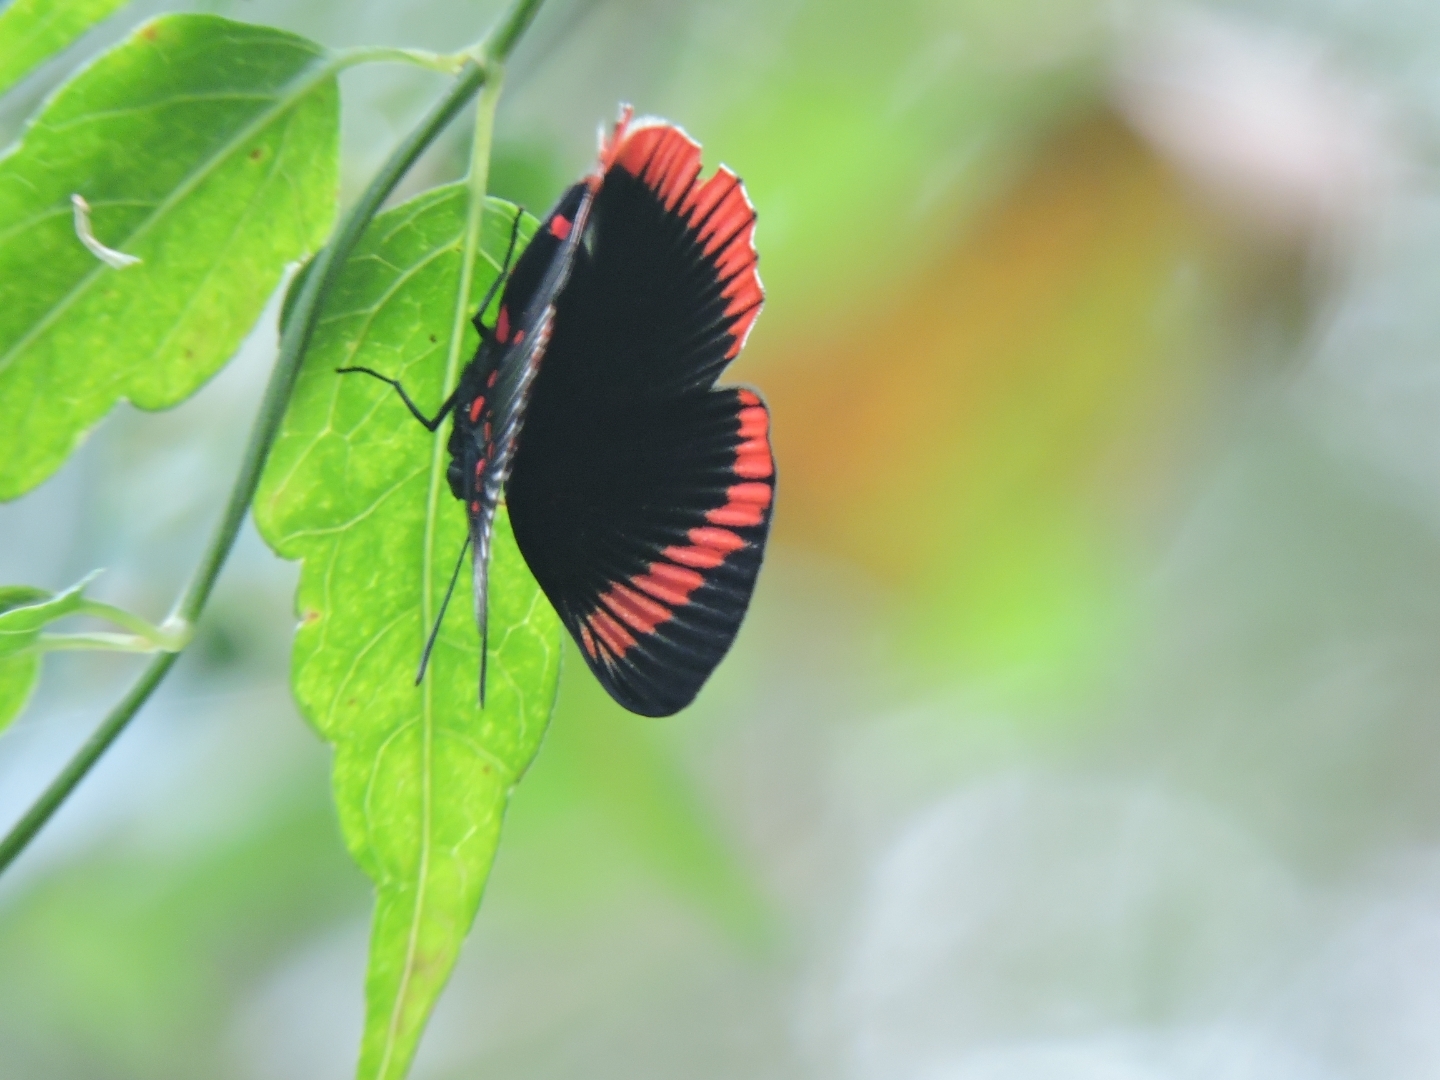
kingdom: Animalia
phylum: Arthropoda
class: Insecta
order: Lepidoptera
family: Riodinidae
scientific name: Riodinidae
